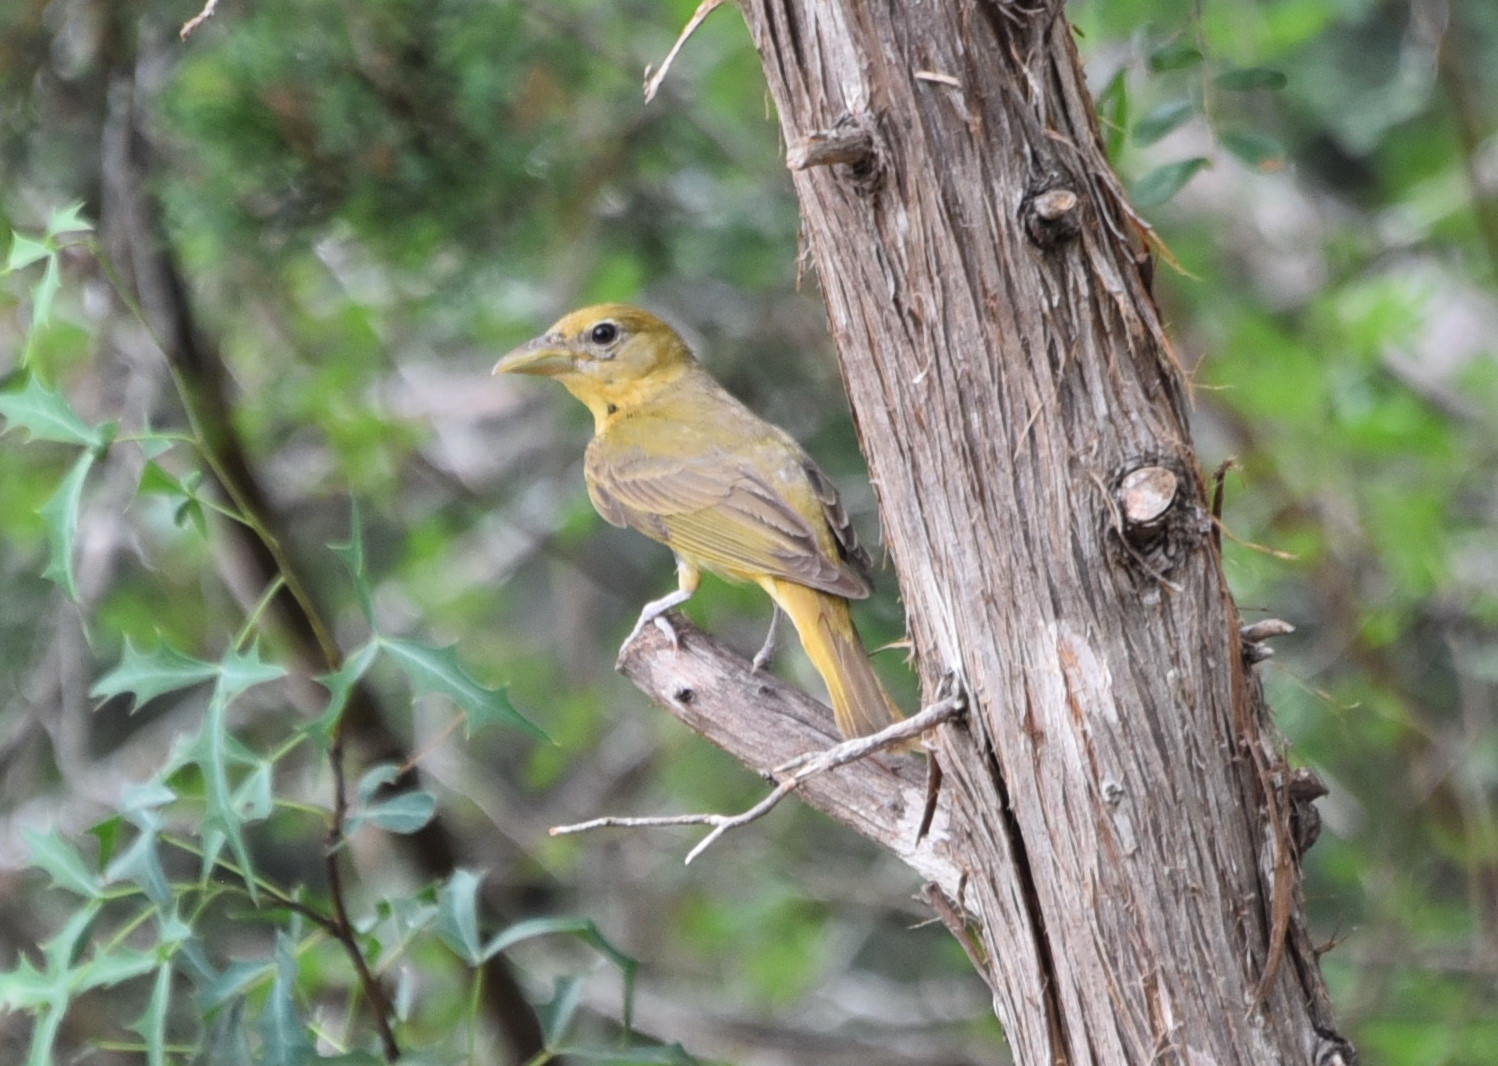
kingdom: Animalia
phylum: Chordata
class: Aves
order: Passeriformes
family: Cardinalidae
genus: Piranga
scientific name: Piranga rubra
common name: Summer tanager
